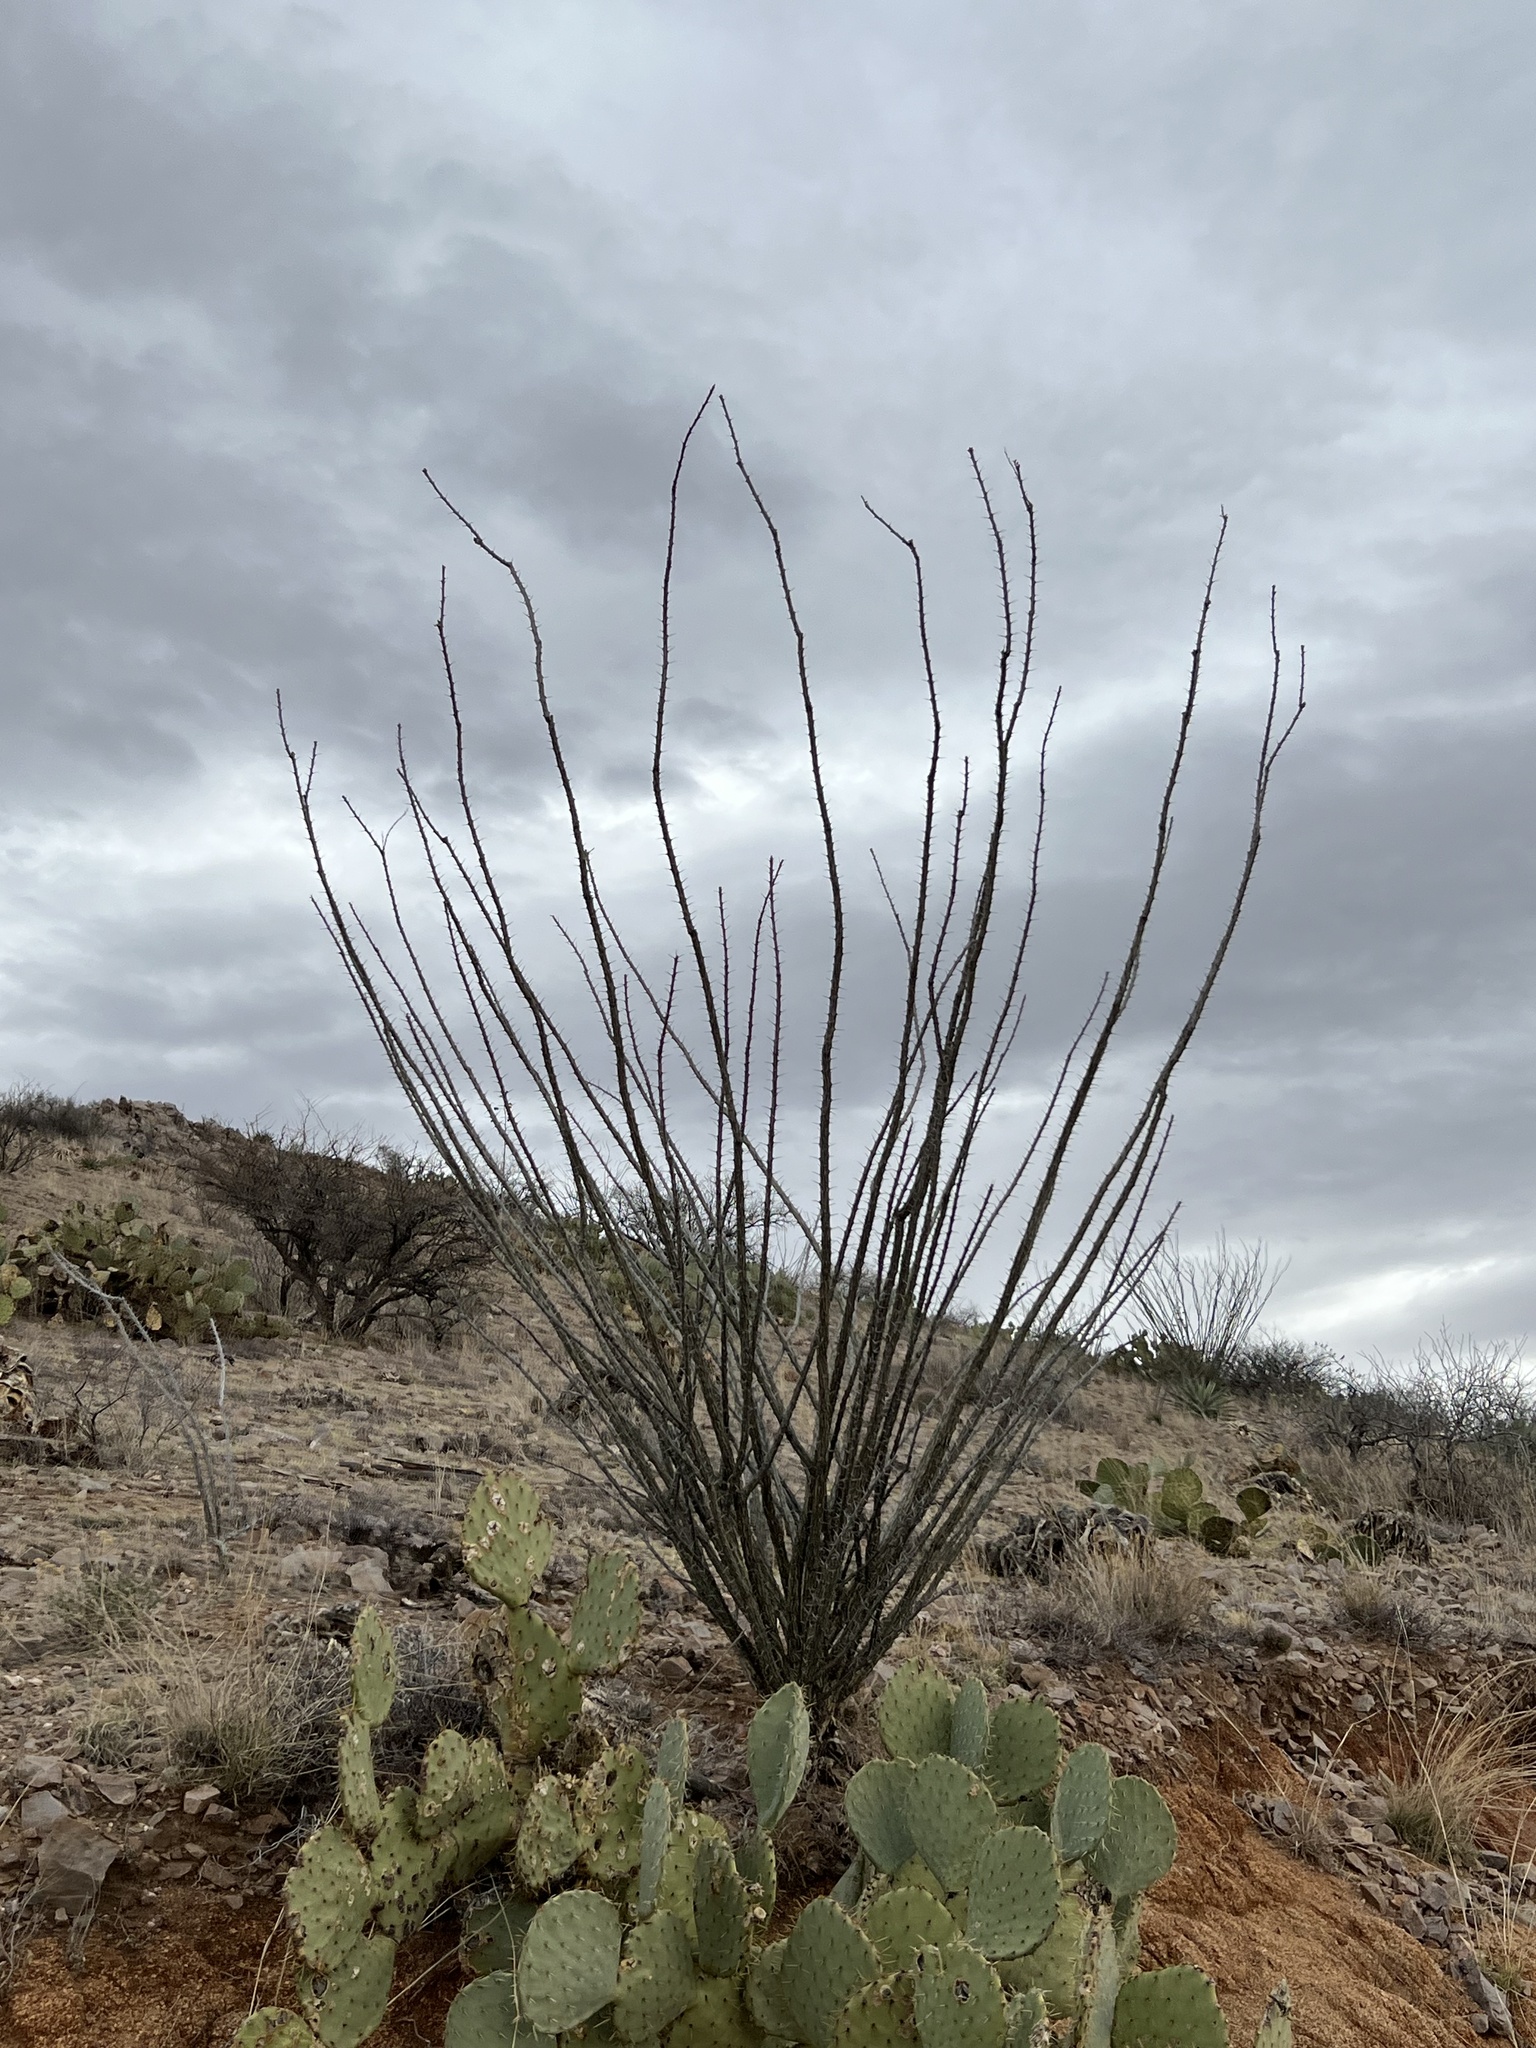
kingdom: Plantae
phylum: Tracheophyta
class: Magnoliopsida
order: Ericales
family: Fouquieriaceae
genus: Fouquieria
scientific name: Fouquieria splendens
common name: Vine-cactus
